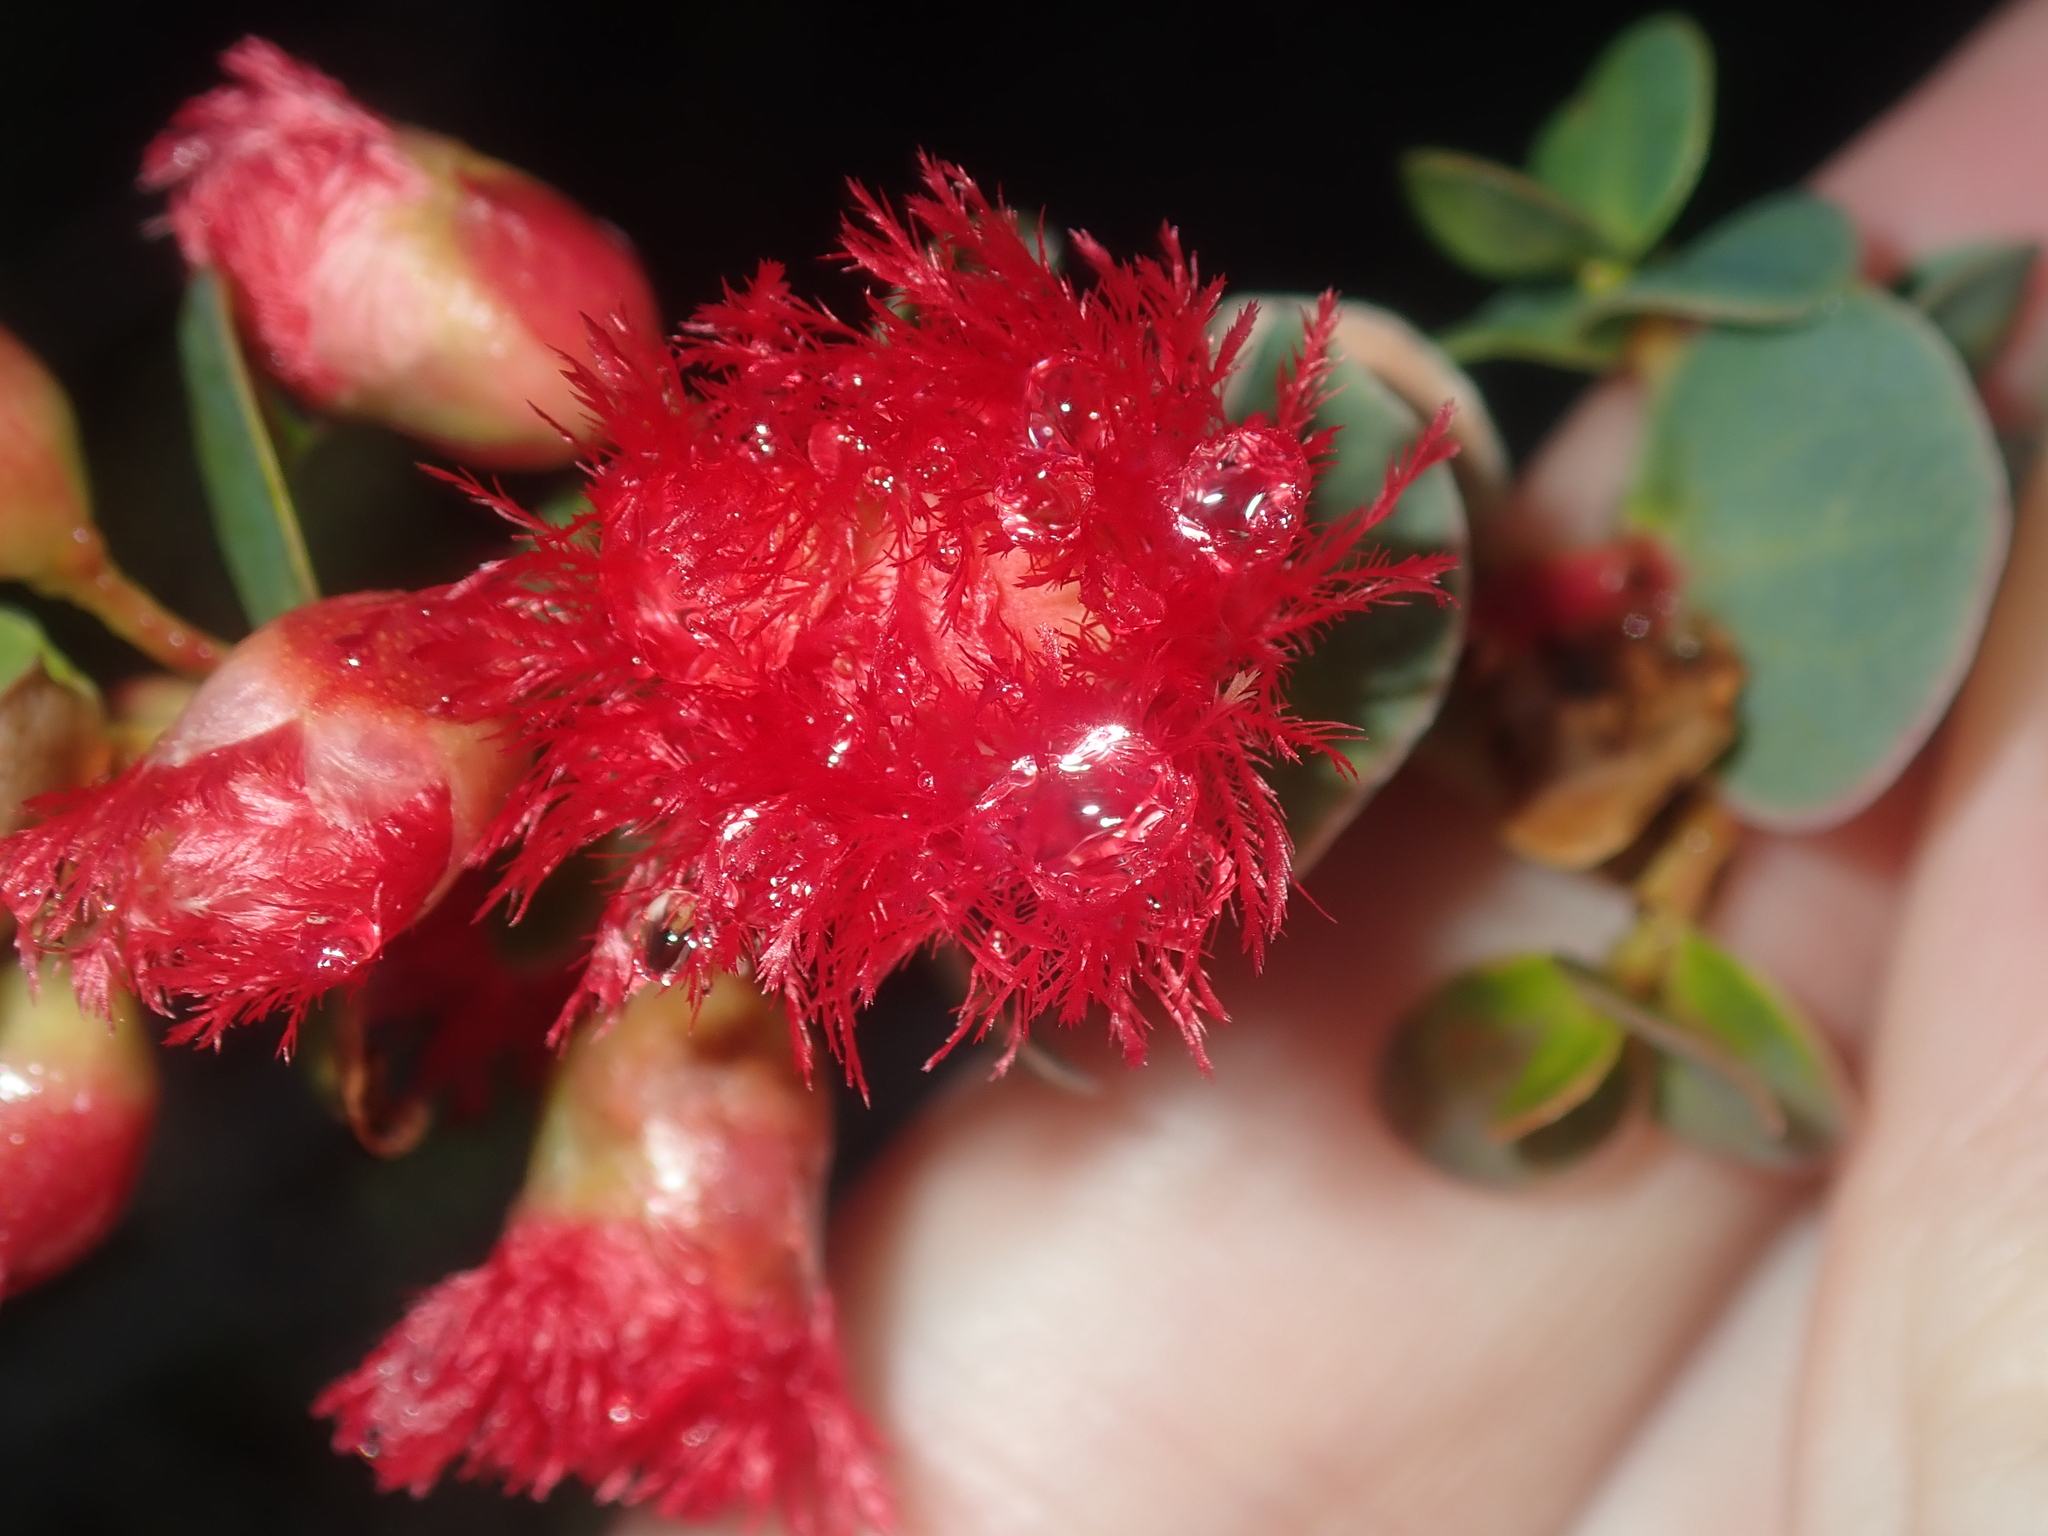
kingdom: Plantae
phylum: Tracheophyta
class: Magnoliopsida
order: Myrtales
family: Myrtaceae
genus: Verticordia
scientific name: Verticordia grandis
